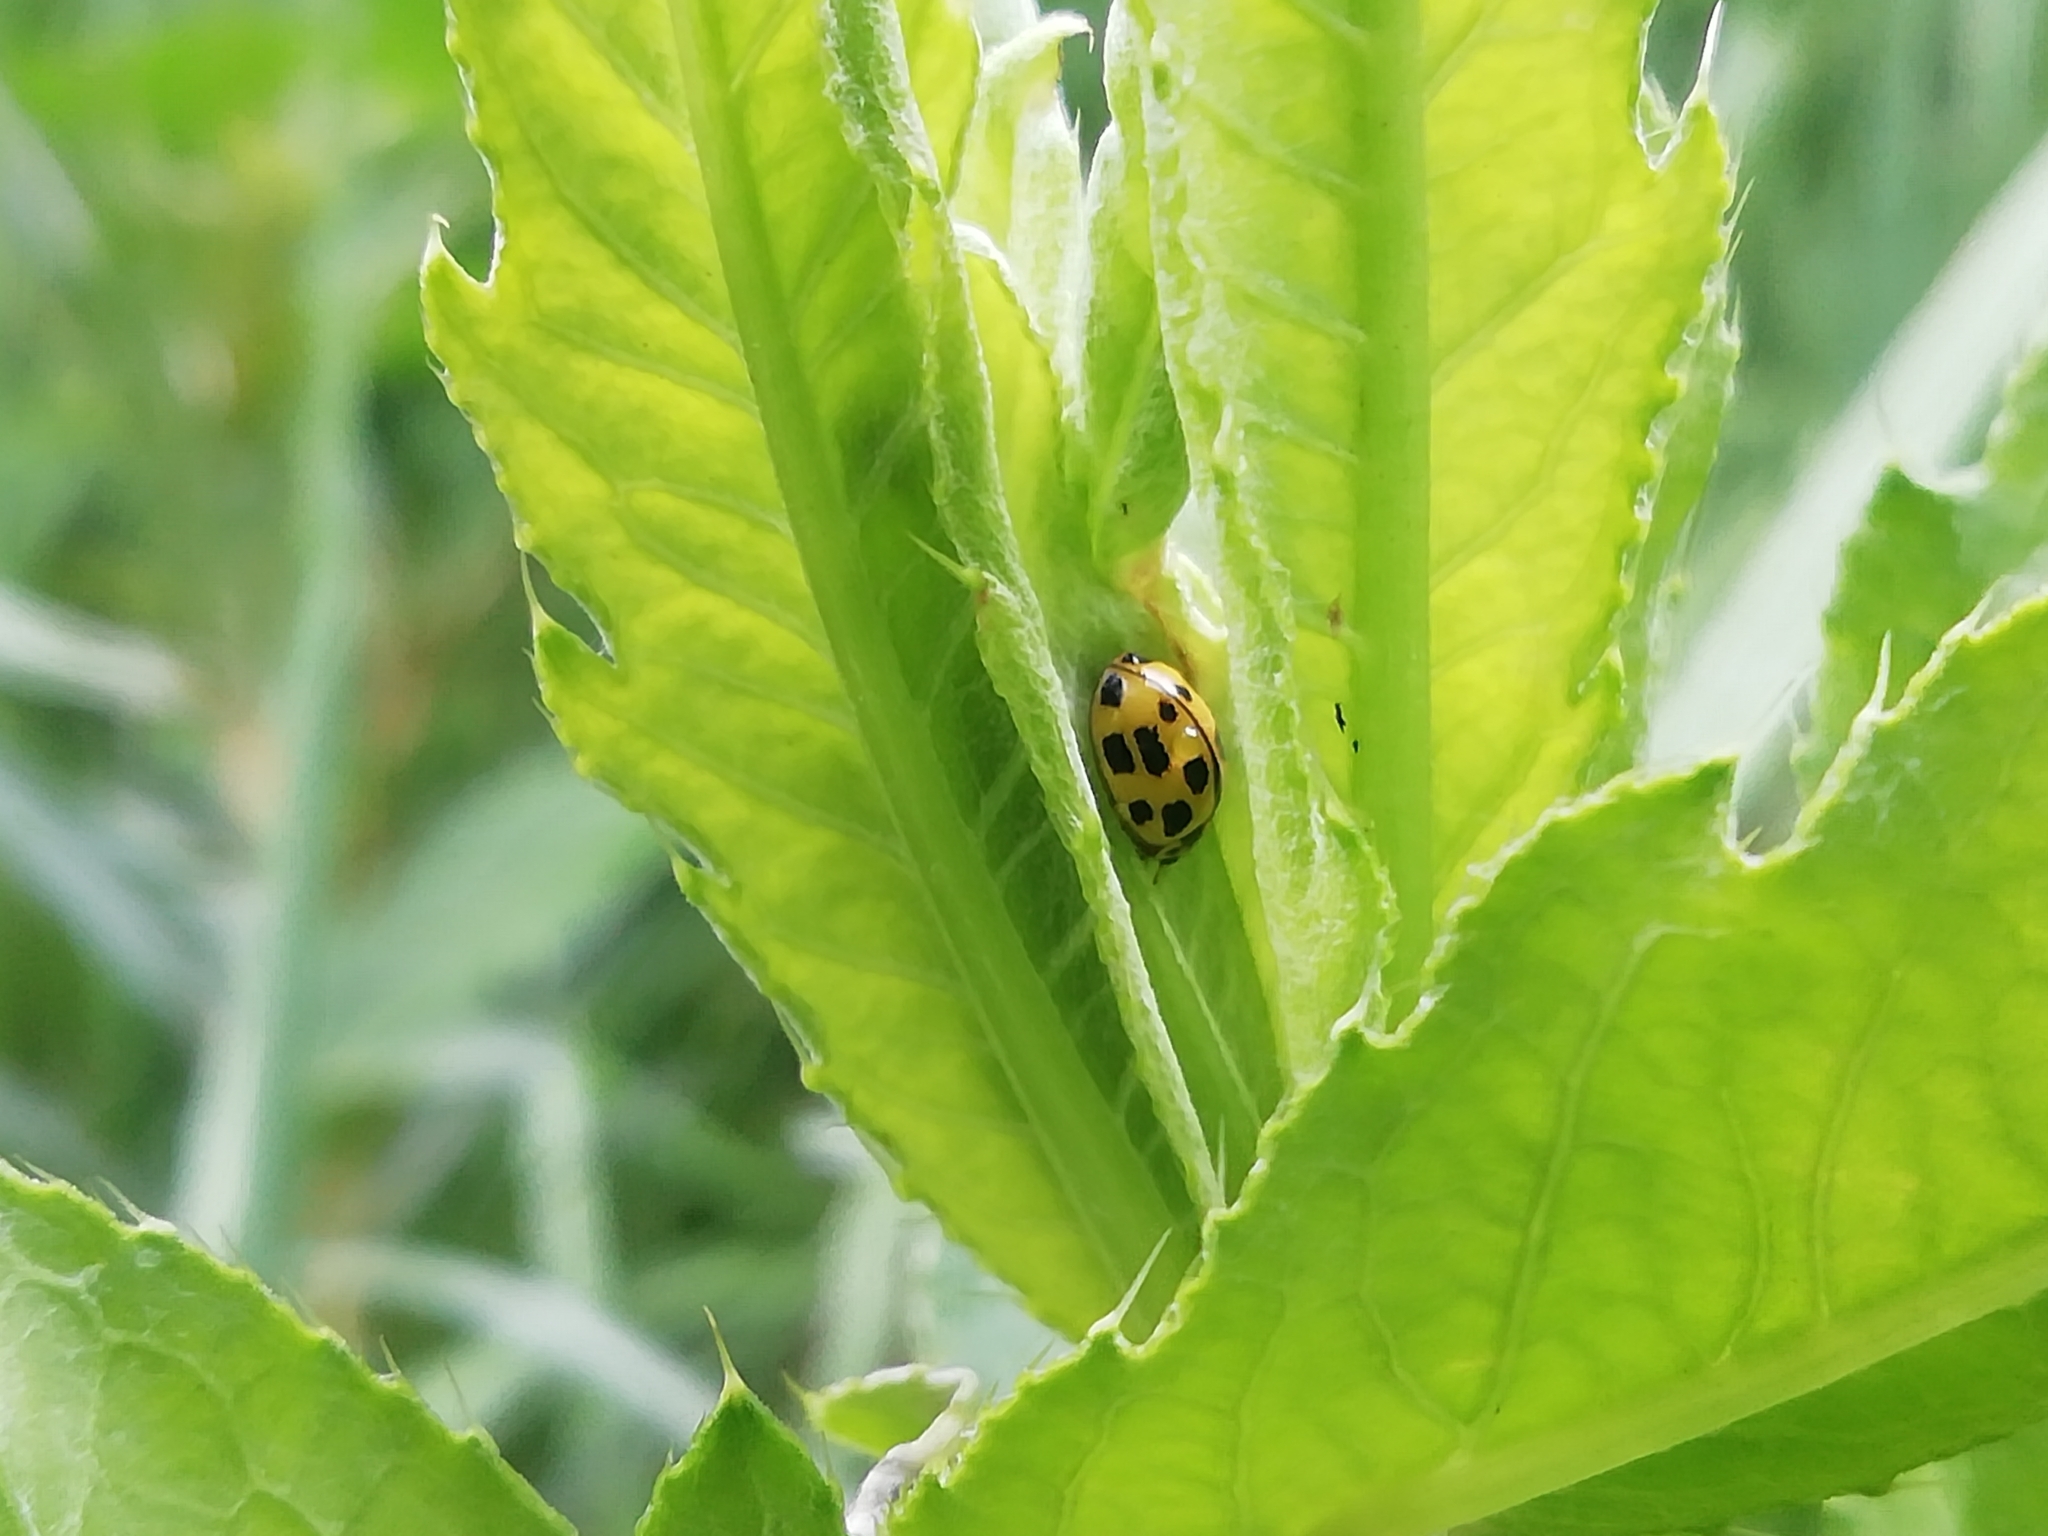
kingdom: Animalia
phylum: Arthropoda
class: Insecta
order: Coleoptera
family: Coccinellidae
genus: Propylaea
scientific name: Propylaea quatuordecimpunctata
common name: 14-spotted ladybird beetle
